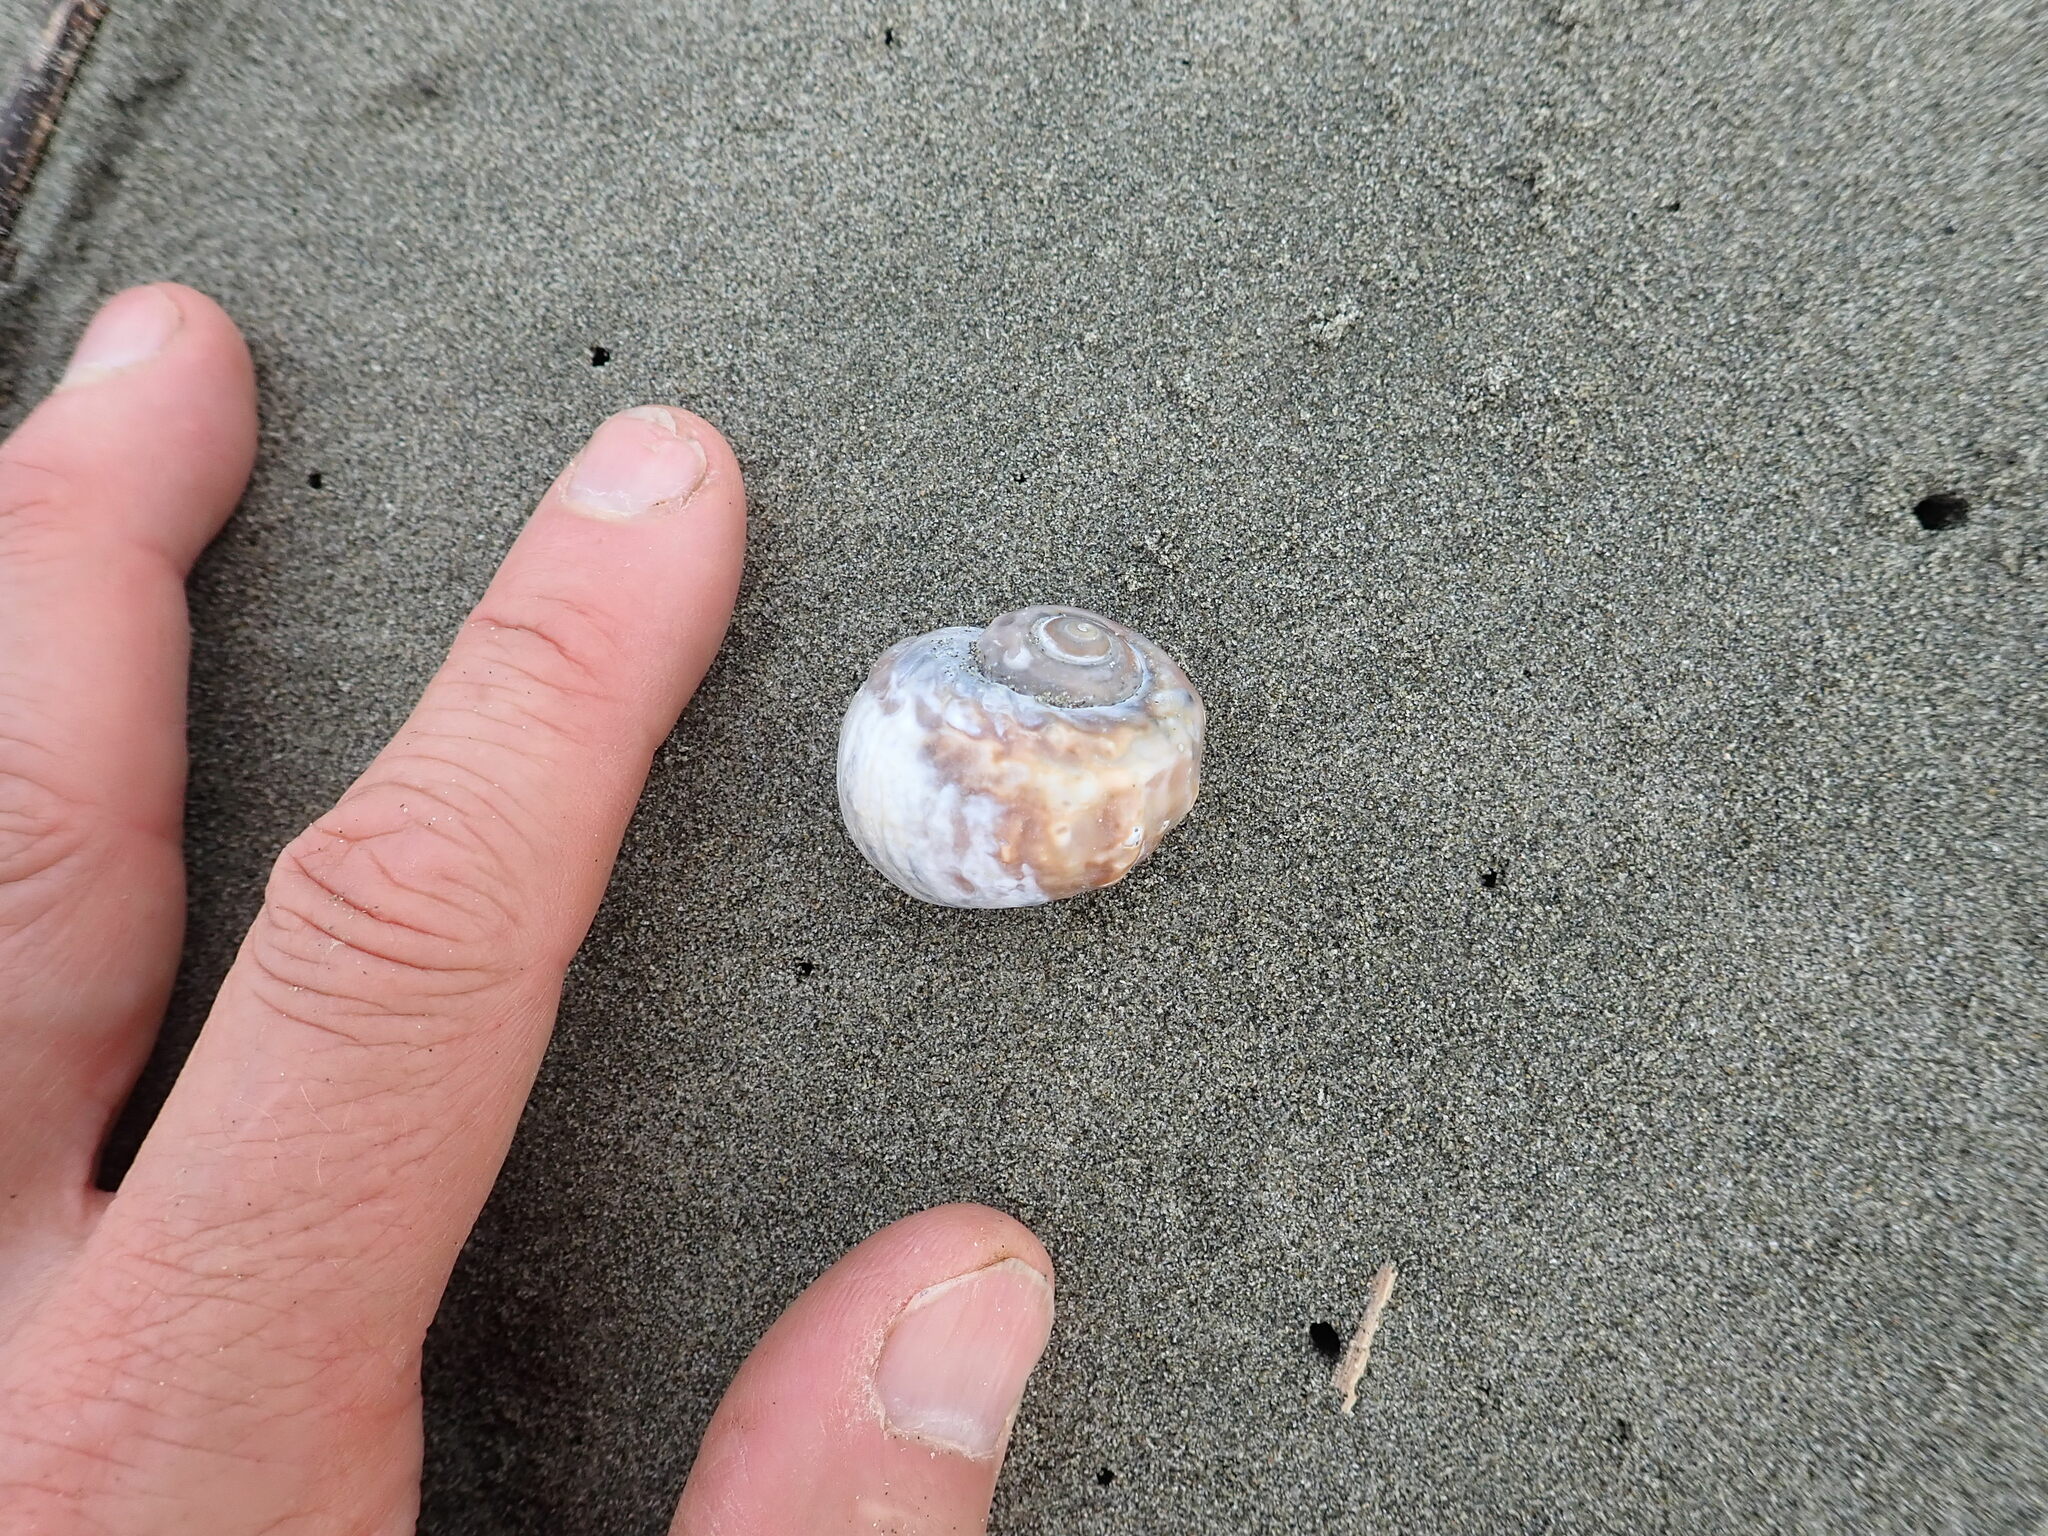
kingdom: Animalia
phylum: Mollusca
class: Gastropoda
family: Amphibolidae
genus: Amphibola
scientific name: Amphibola crenata
